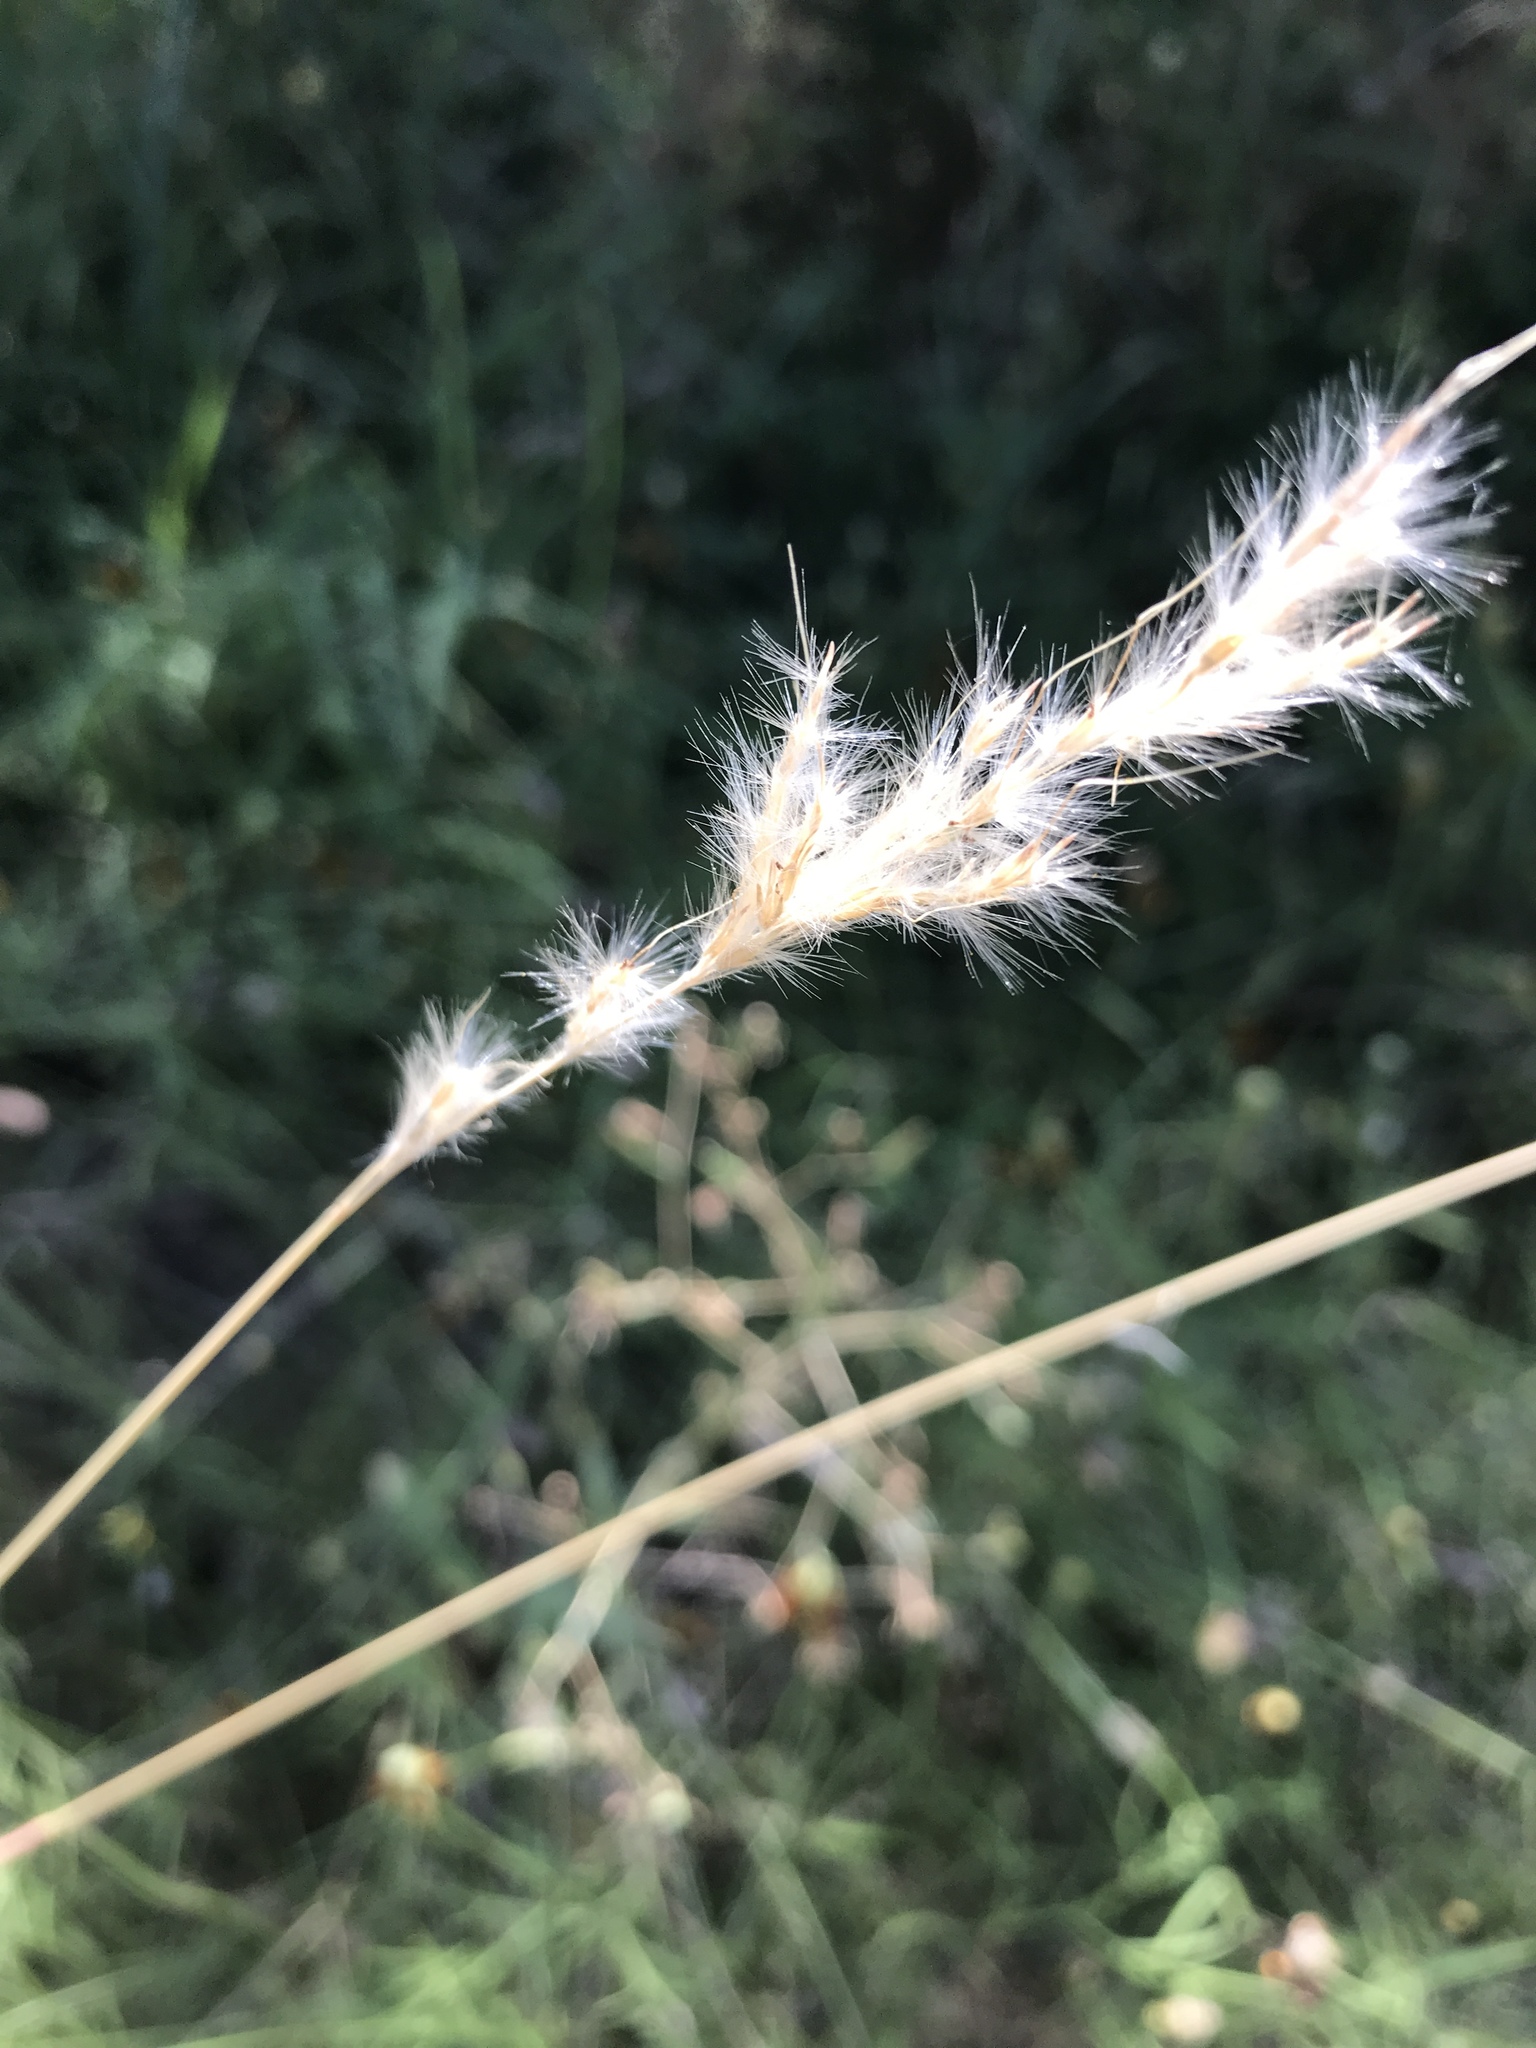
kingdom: Plantae
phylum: Tracheophyta
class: Liliopsida
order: Poales
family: Poaceae
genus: Bothriochloa
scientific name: Bothriochloa torreyana
